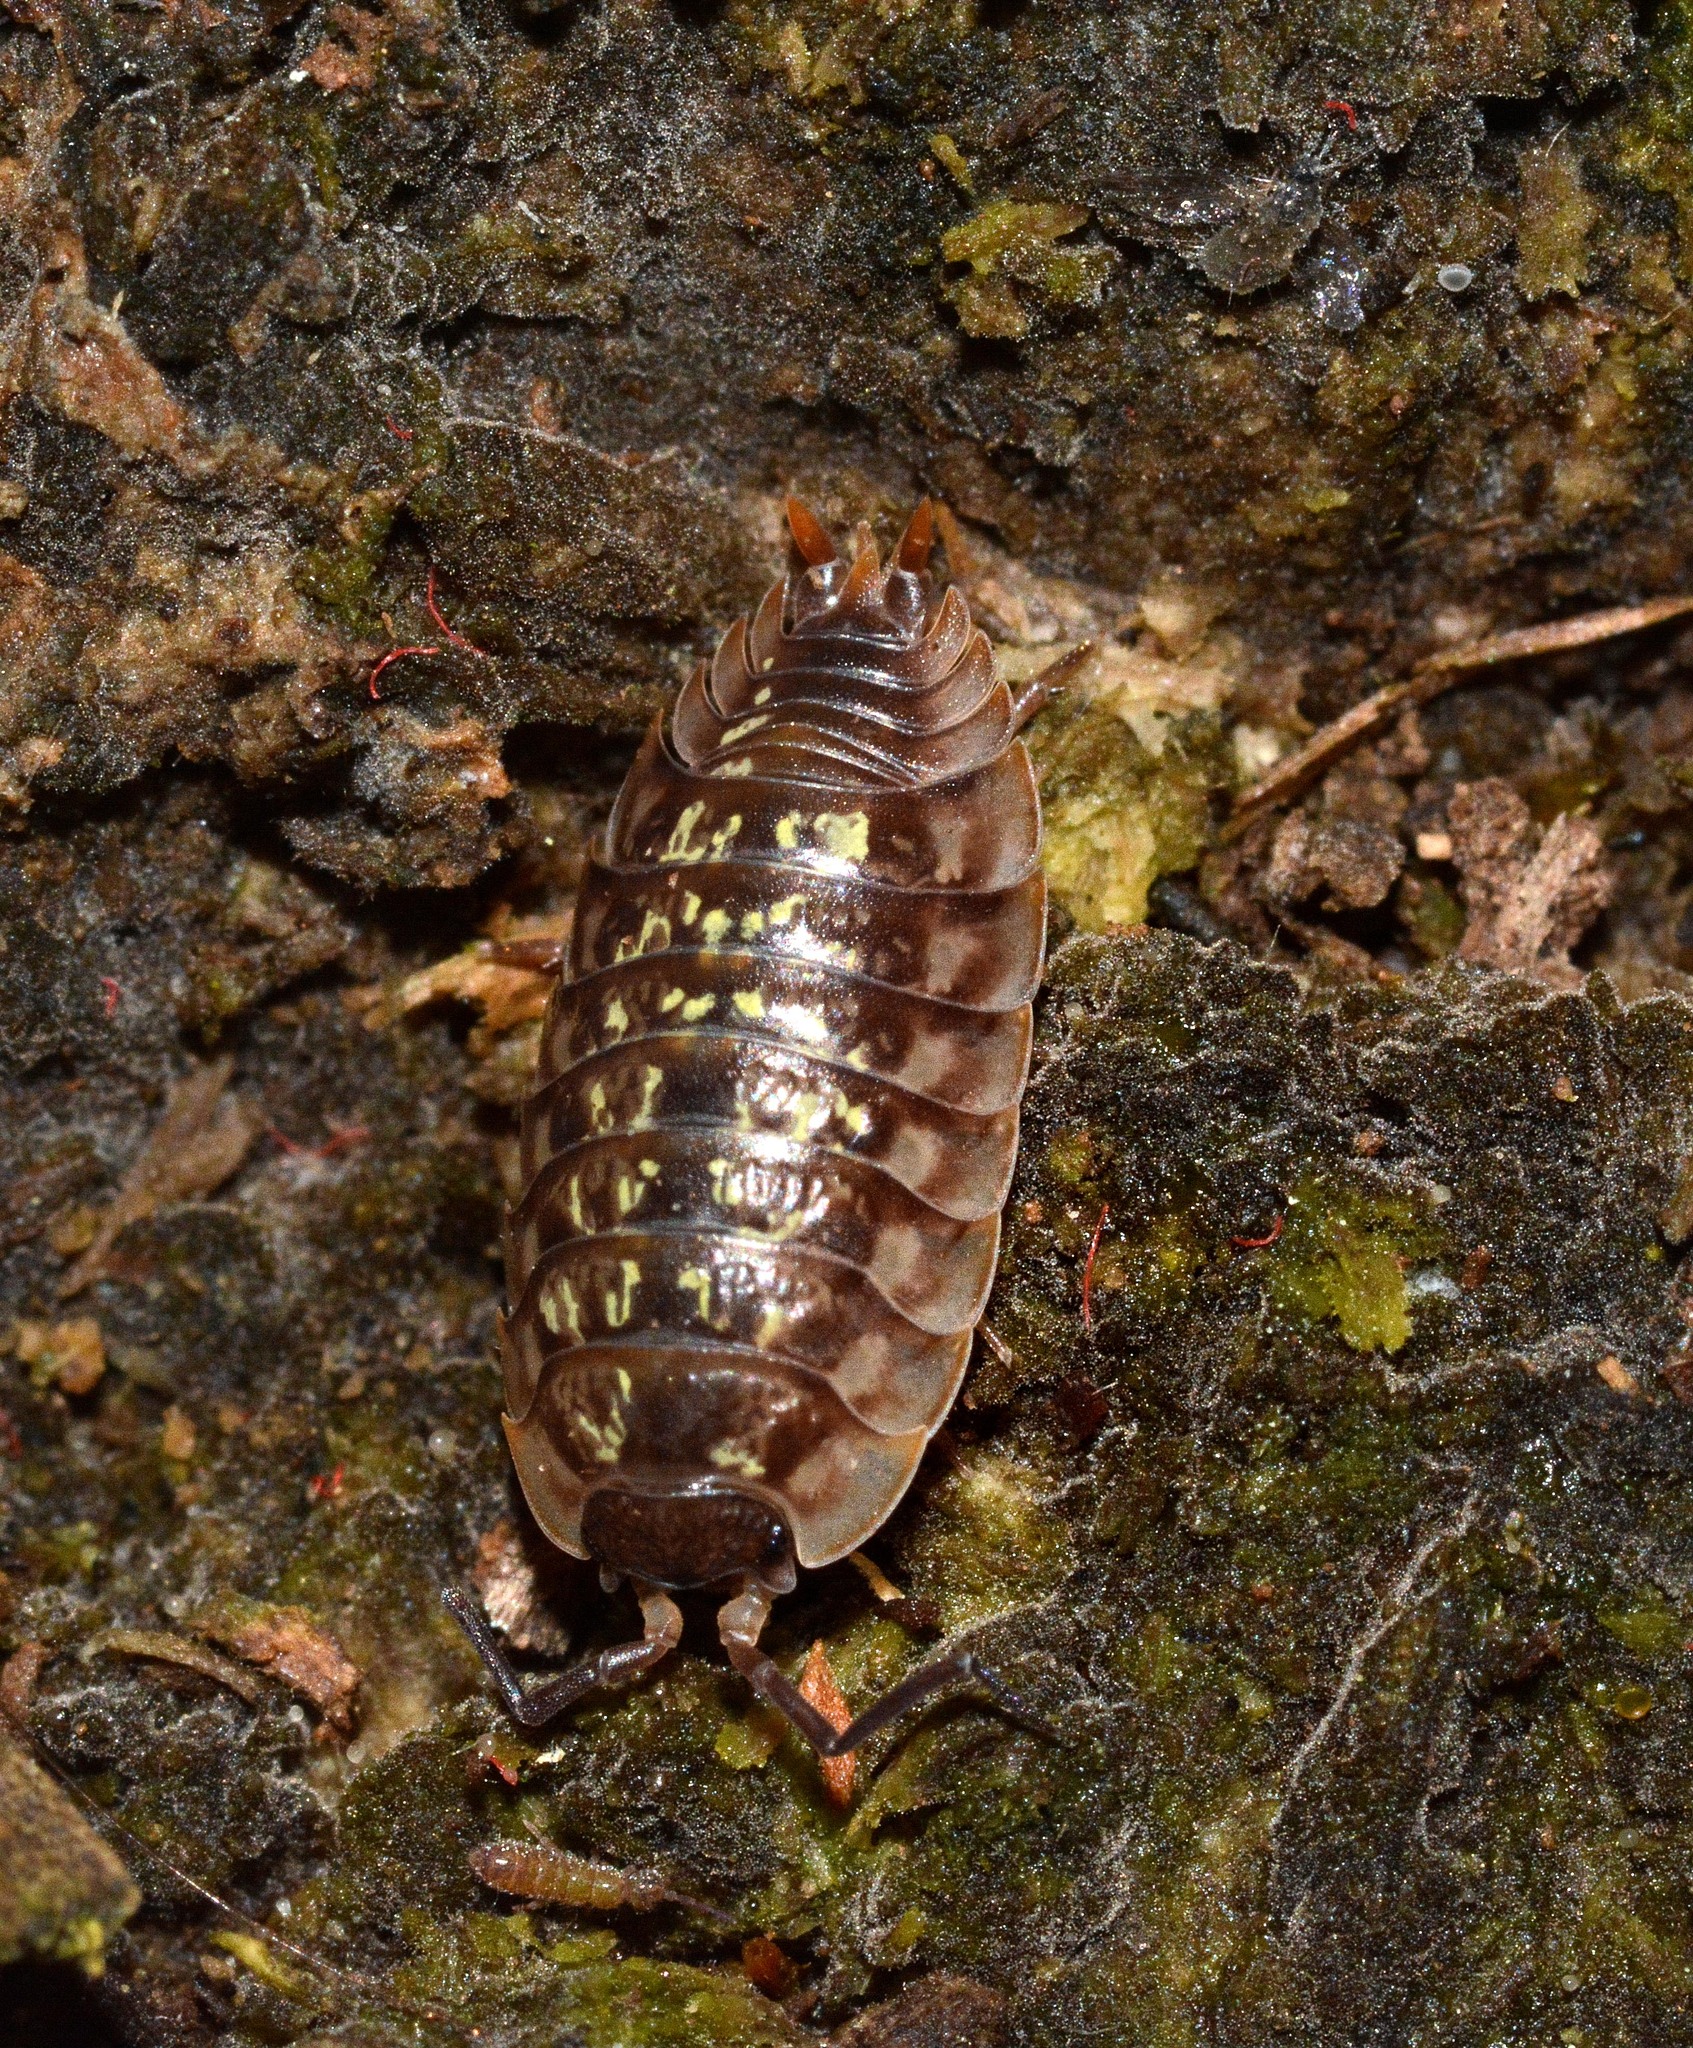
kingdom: Animalia
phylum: Arthropoda
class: Malacostraca
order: Isopoda
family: Oniscidae
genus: Oniscus
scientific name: Oniscus asellus
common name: Common shiny woodlouse
